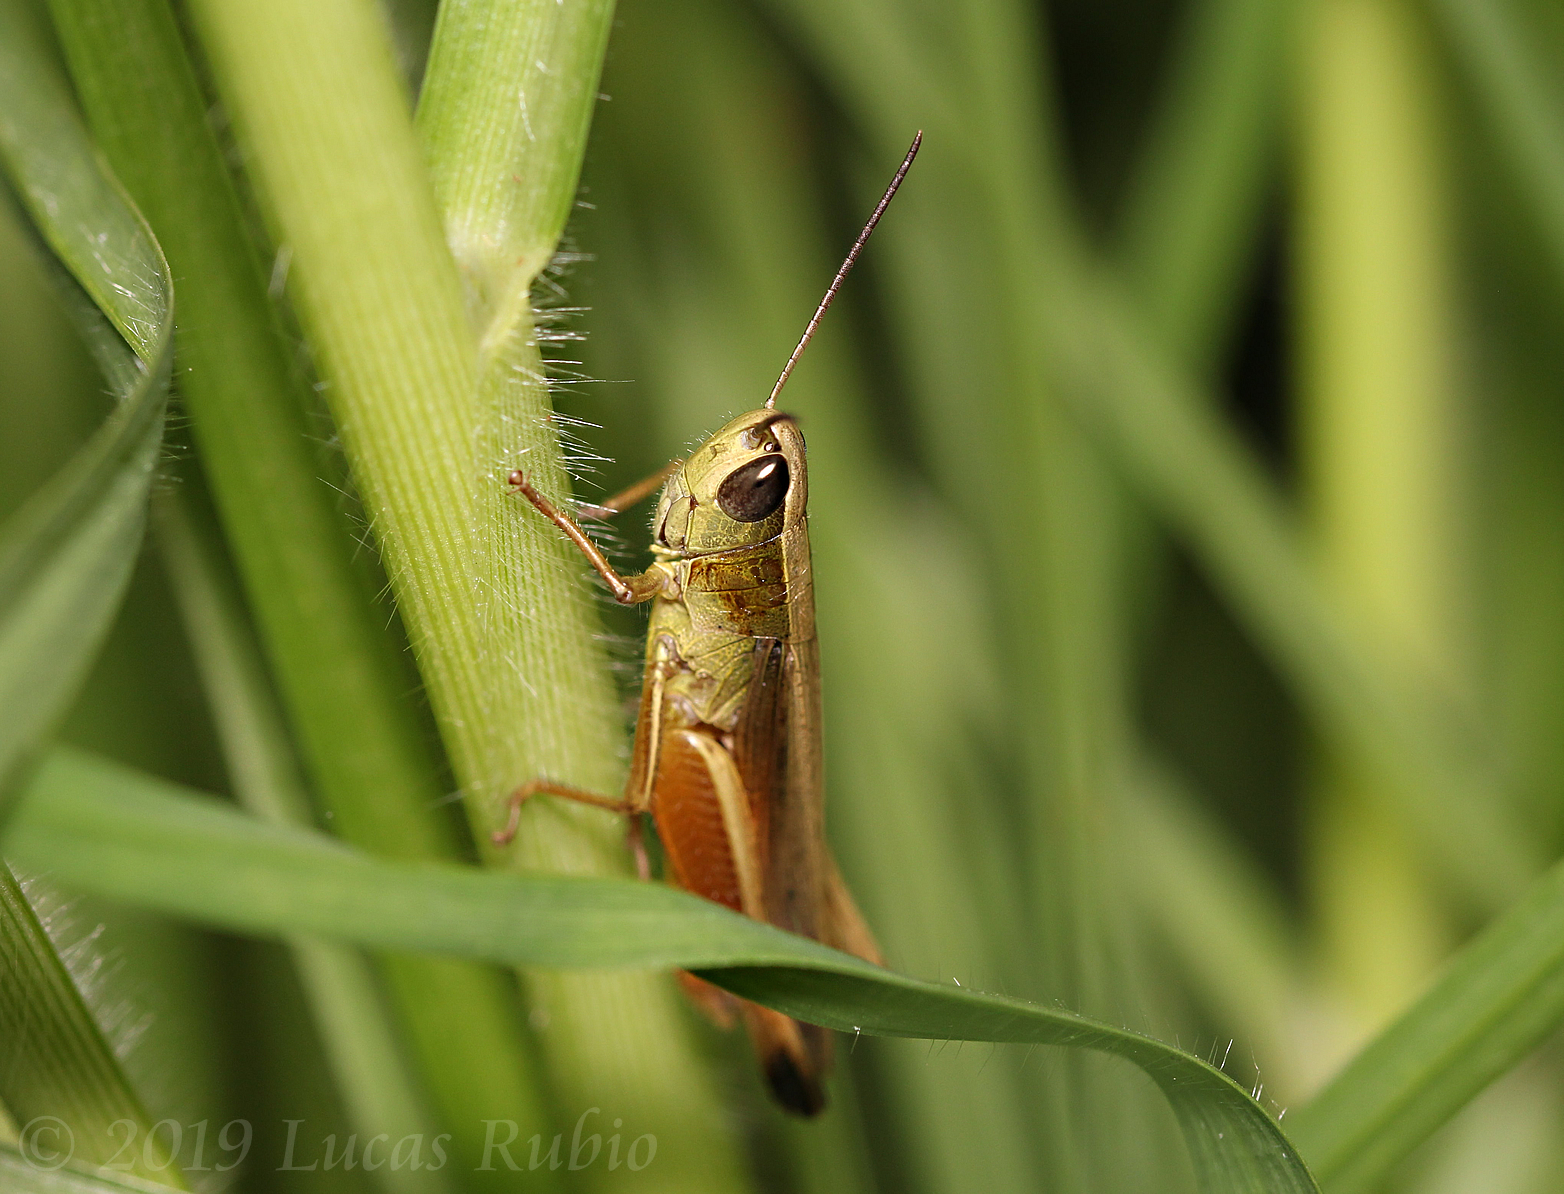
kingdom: Animalia
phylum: Arthropoda
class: Insecta
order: Orthoptera
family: Acrididae
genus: Amblytropidia
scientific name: Amblytropidia australis
